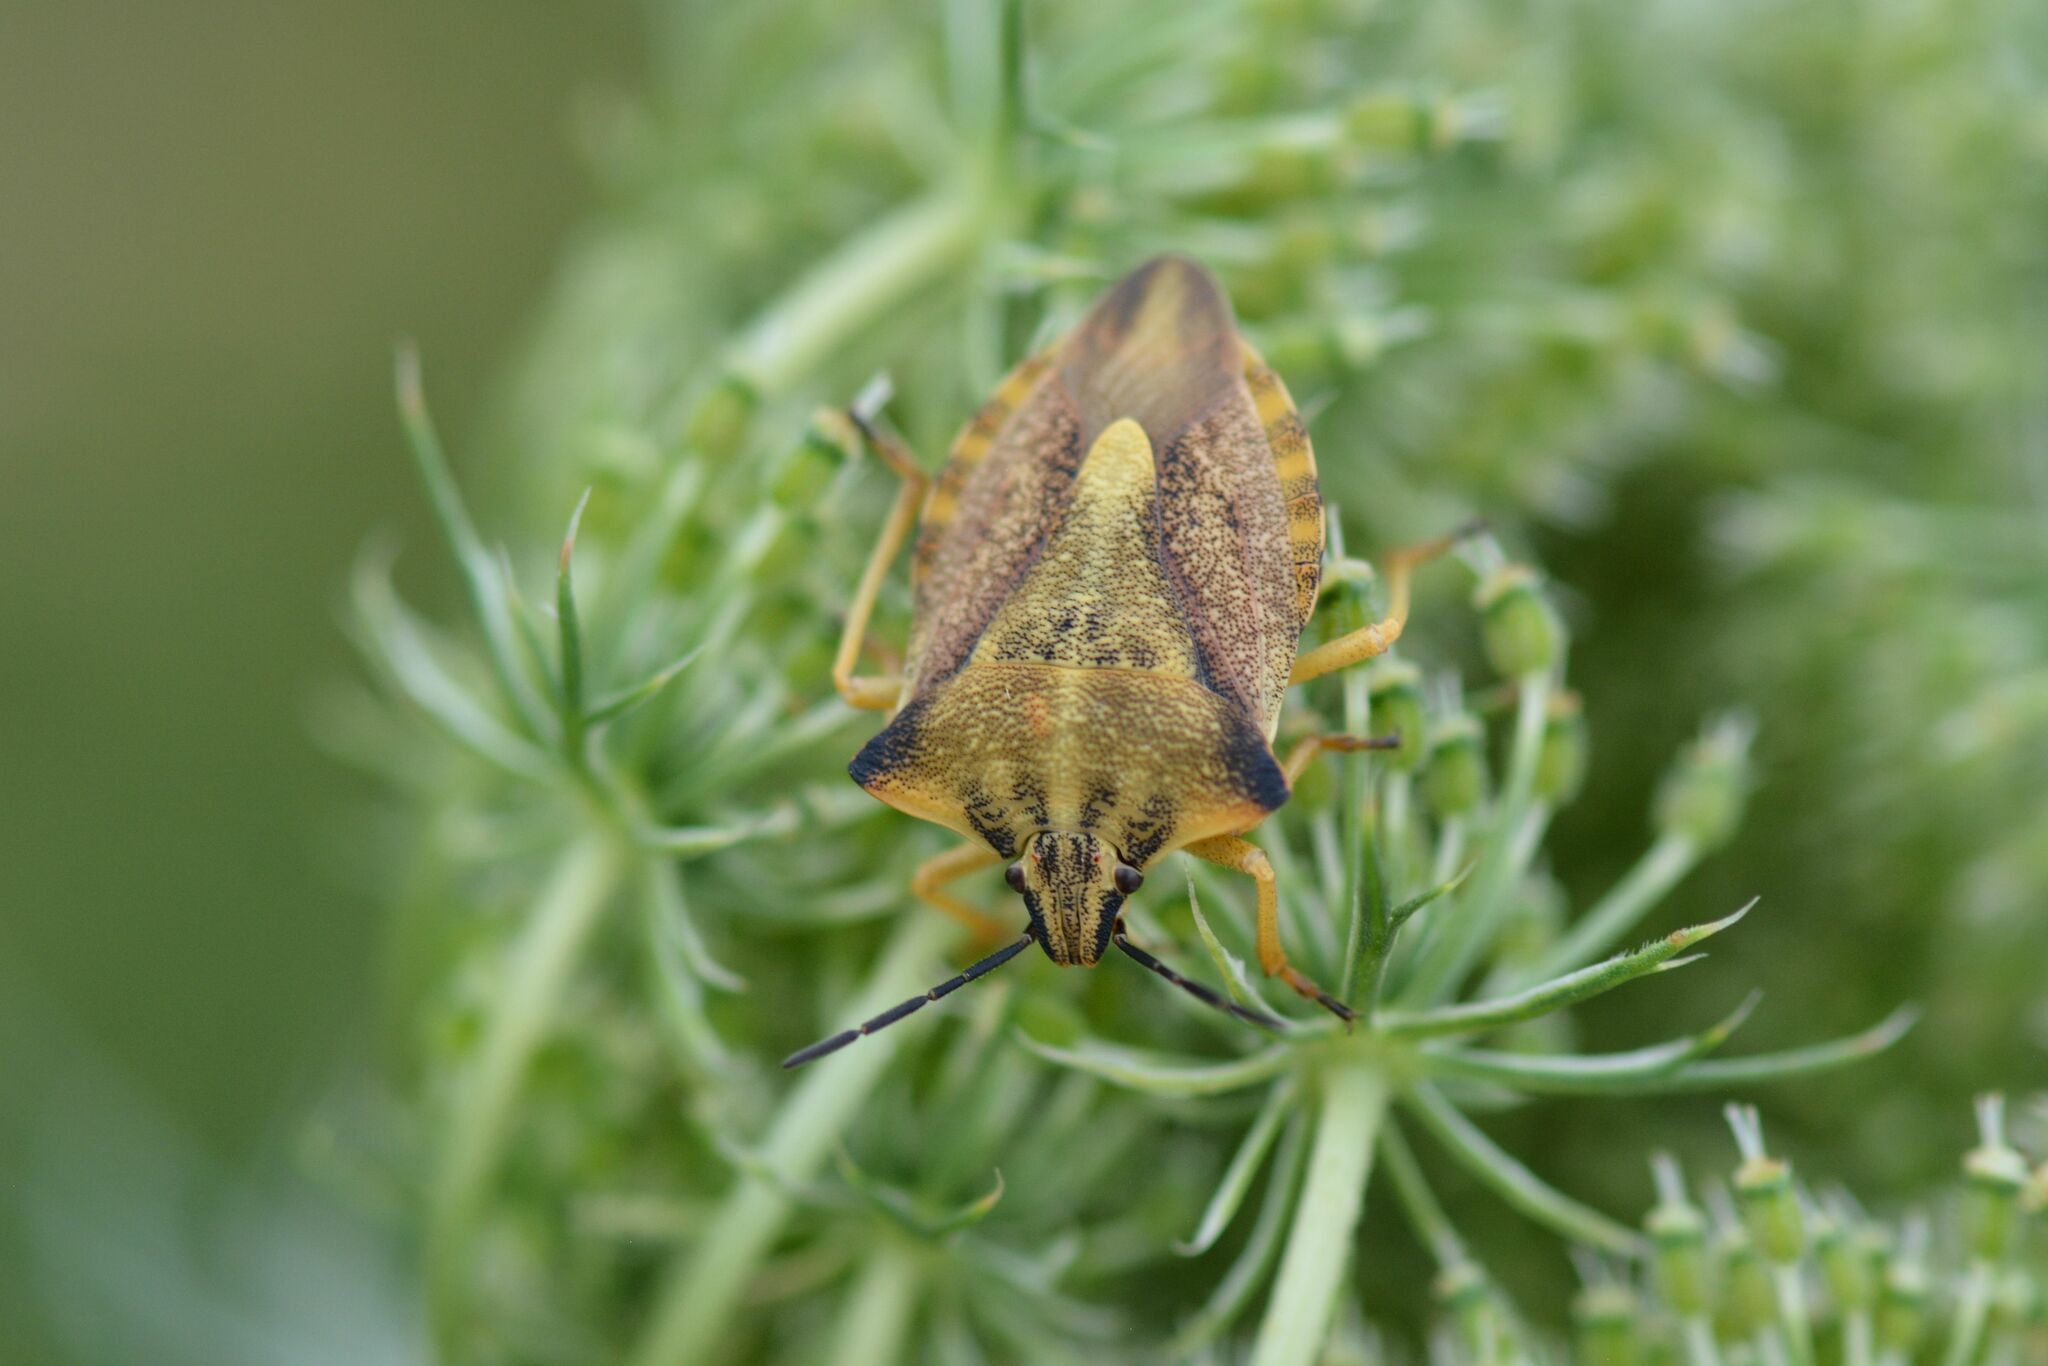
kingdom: Animalia
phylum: Arthropoda
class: Insecta
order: Hemiptera
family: Pentatomidae
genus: Carpocoris
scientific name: Carpocoris fuscispinus
